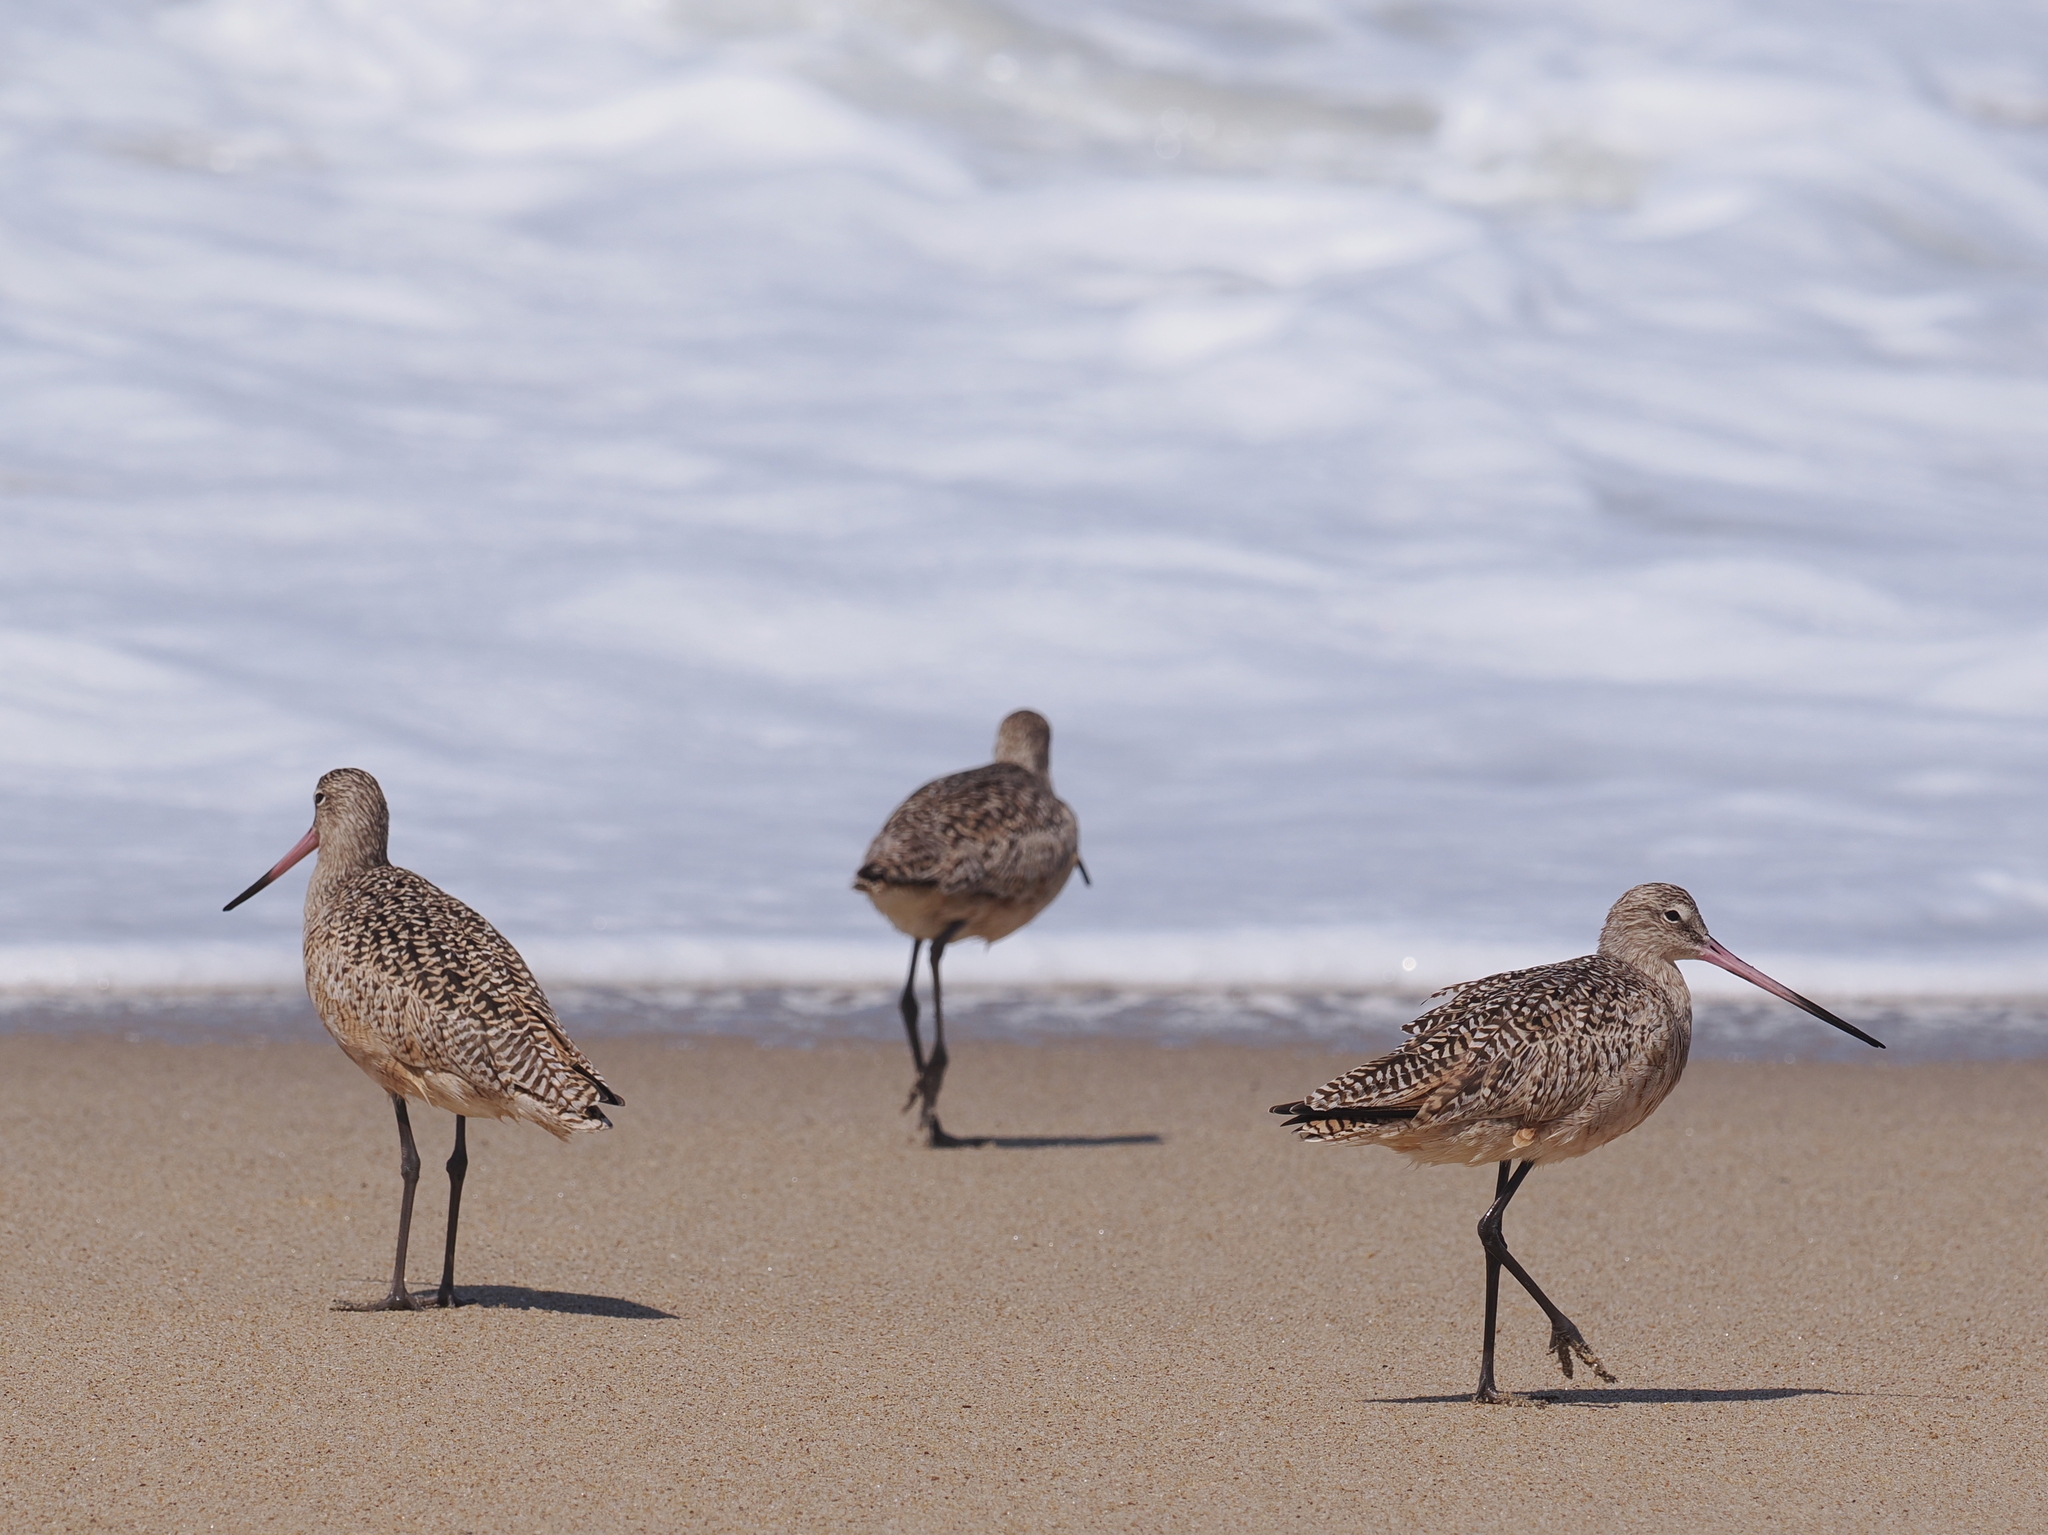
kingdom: Animalia
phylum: Chordata
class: Aves
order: Charadriiformes
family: Scolopacidae
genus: Limosa
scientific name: Limosa fedoa
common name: Marbled godwit
